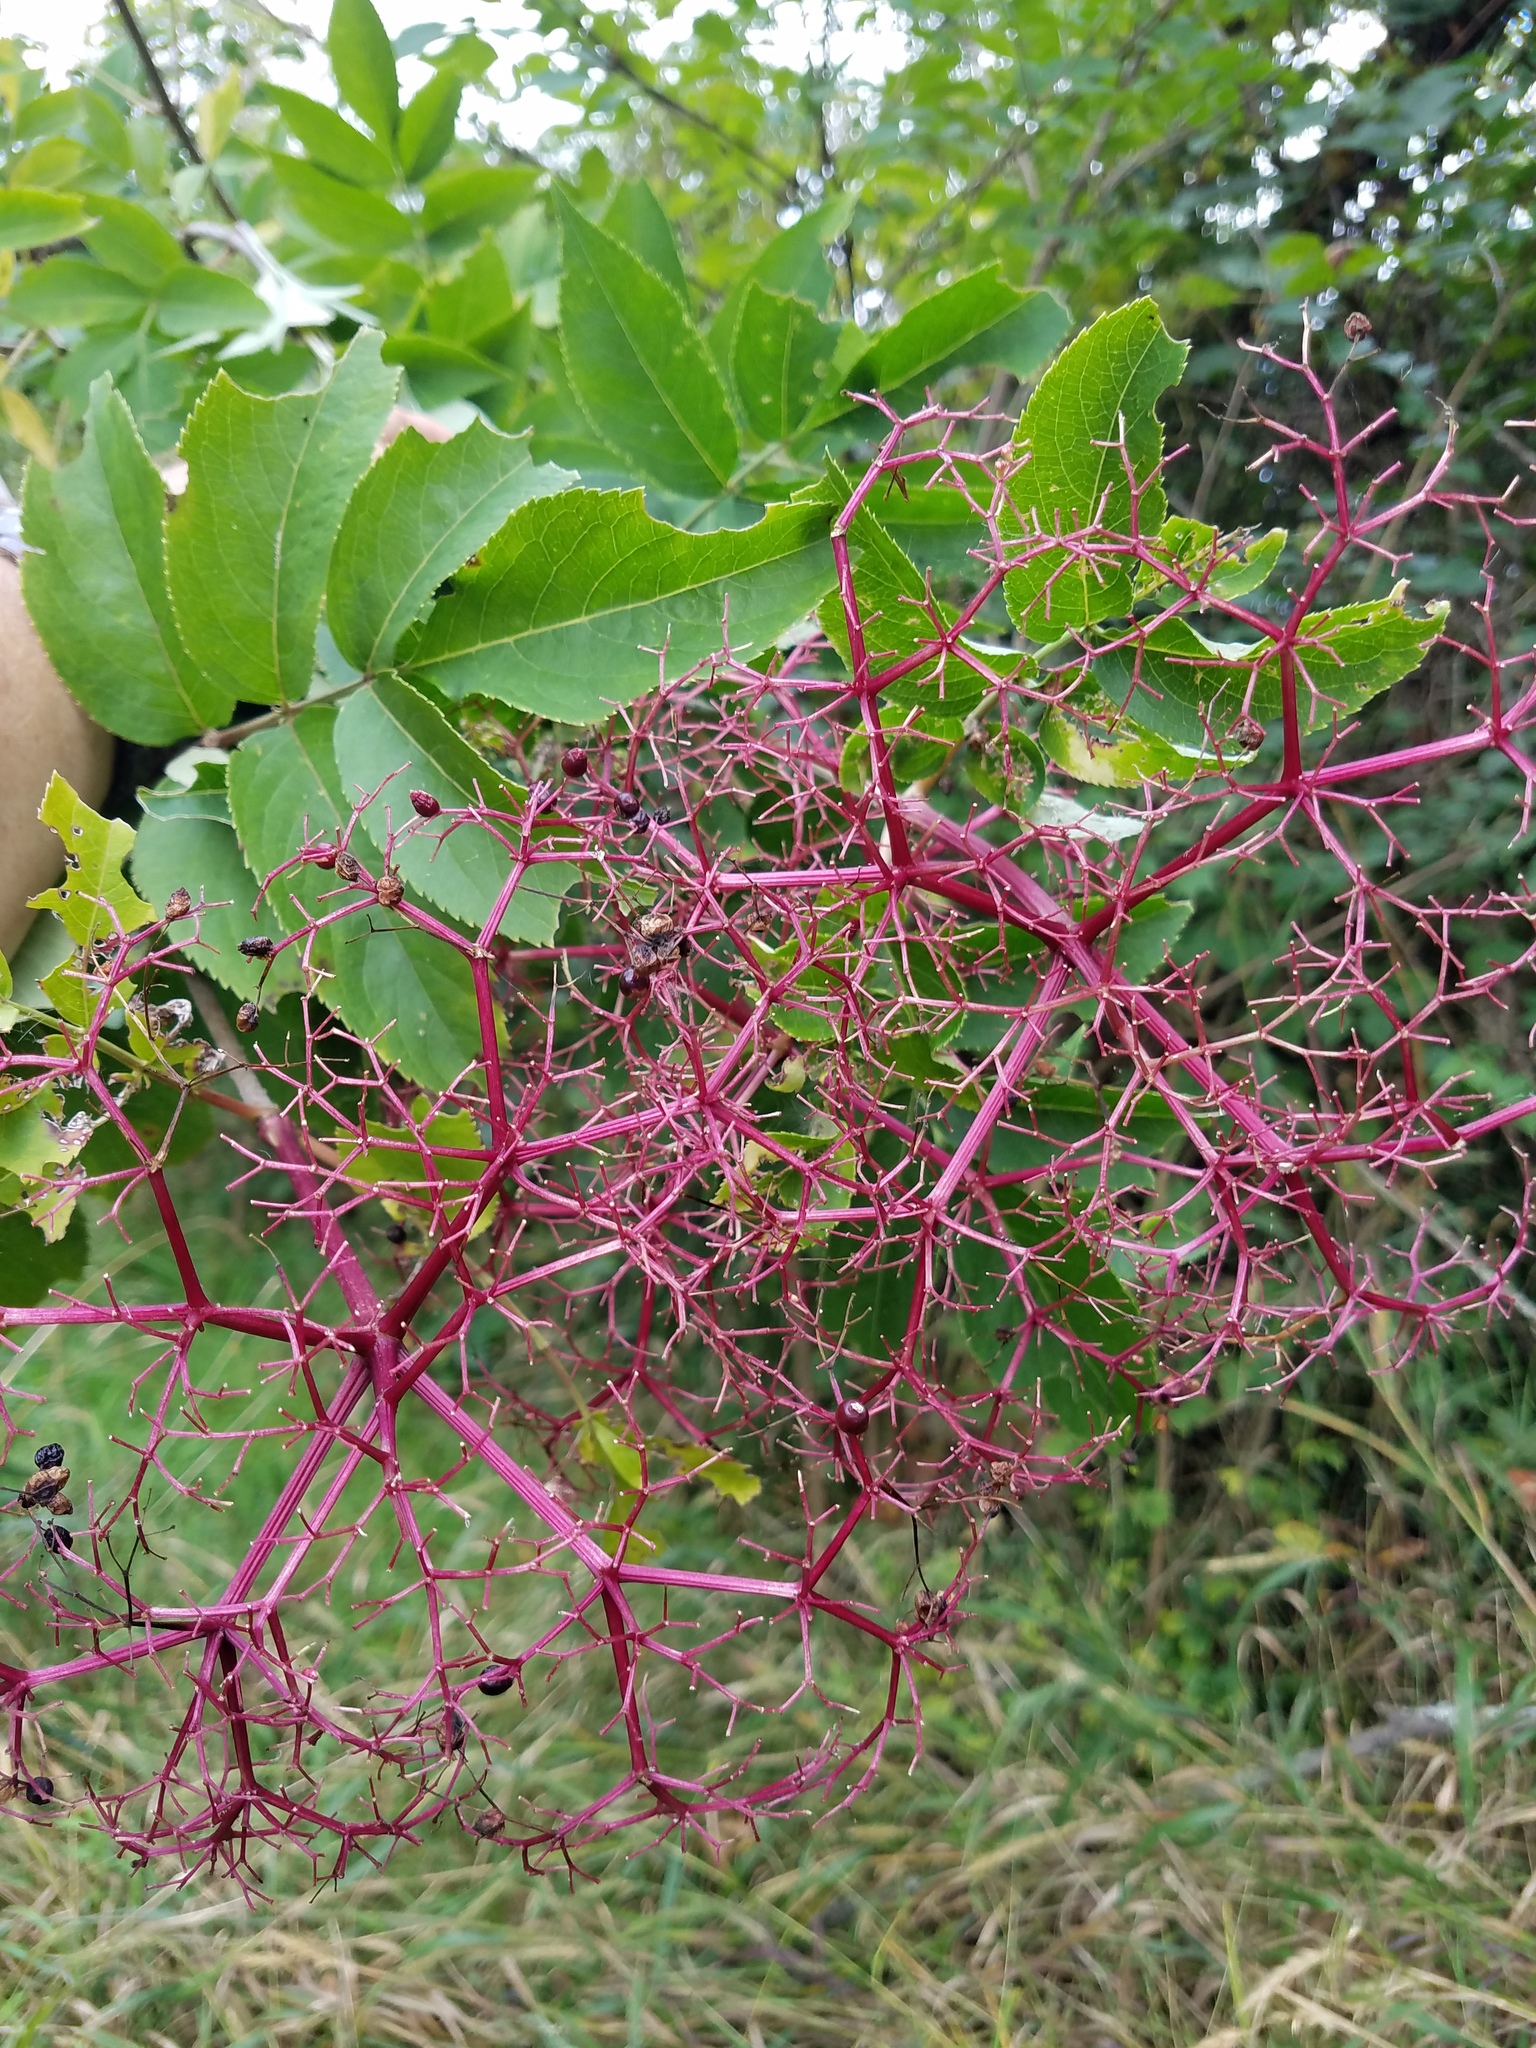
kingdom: Plantae
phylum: Tracheophyta
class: Magnoliopsida
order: Dipsacales
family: Viburnaceae
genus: Sambucus
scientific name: Sambucus canadensis
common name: American elder
